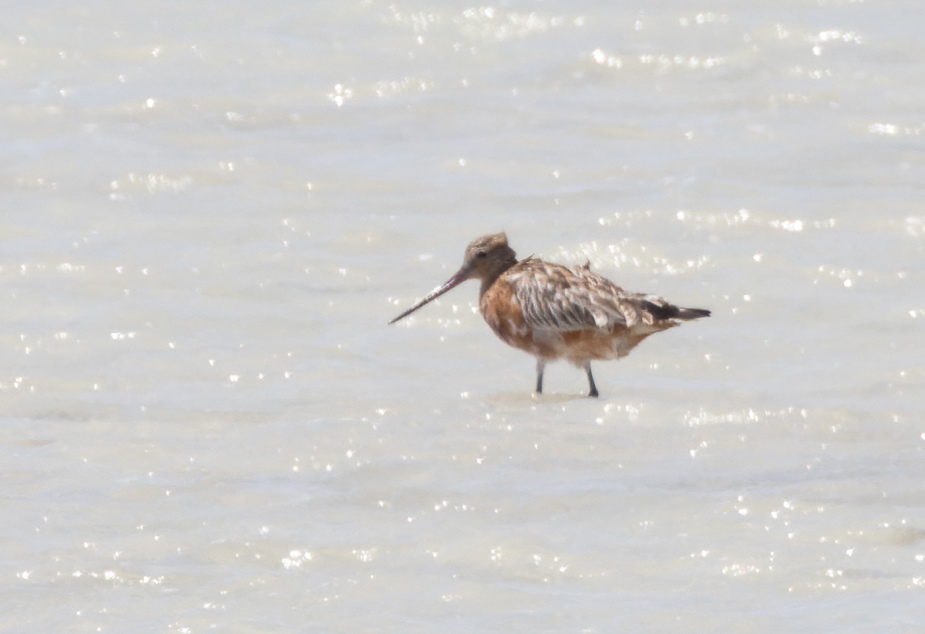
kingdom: Animalia
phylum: Chordata
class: Aves
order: Charadriiformes
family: Scolopacidae
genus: Limosa
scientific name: Limosa lapponica
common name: Bar-tailed godwit
